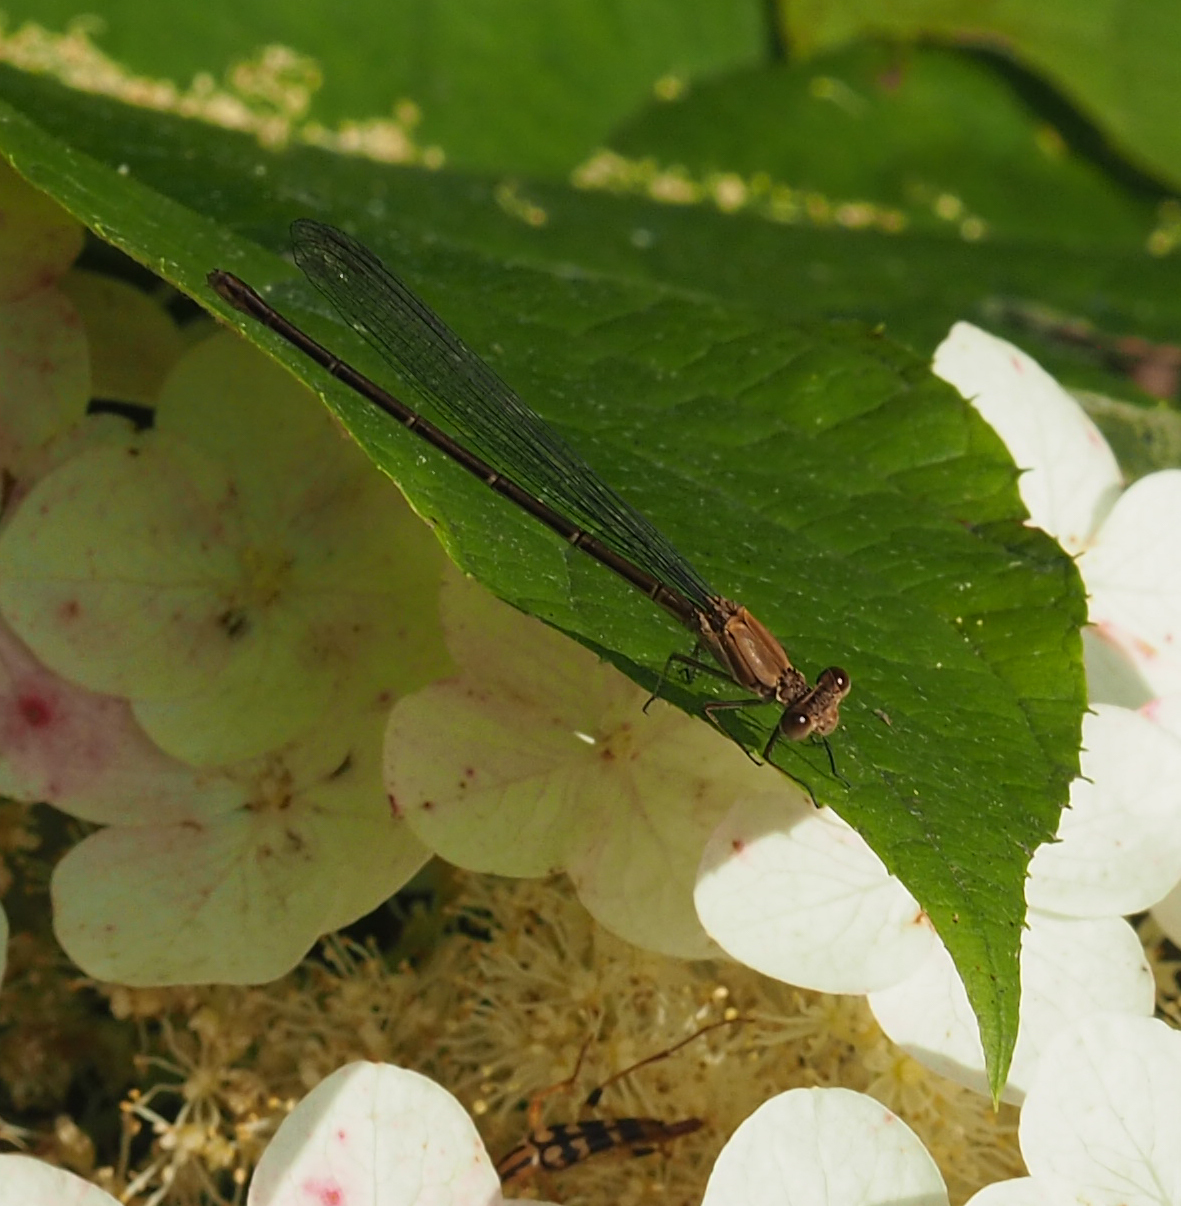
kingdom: Animalia
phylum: Arthropoda
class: Insecta
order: Odonata
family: Coenagrionidae
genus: Argia
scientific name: Argia moesta
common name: Powdered dancer
